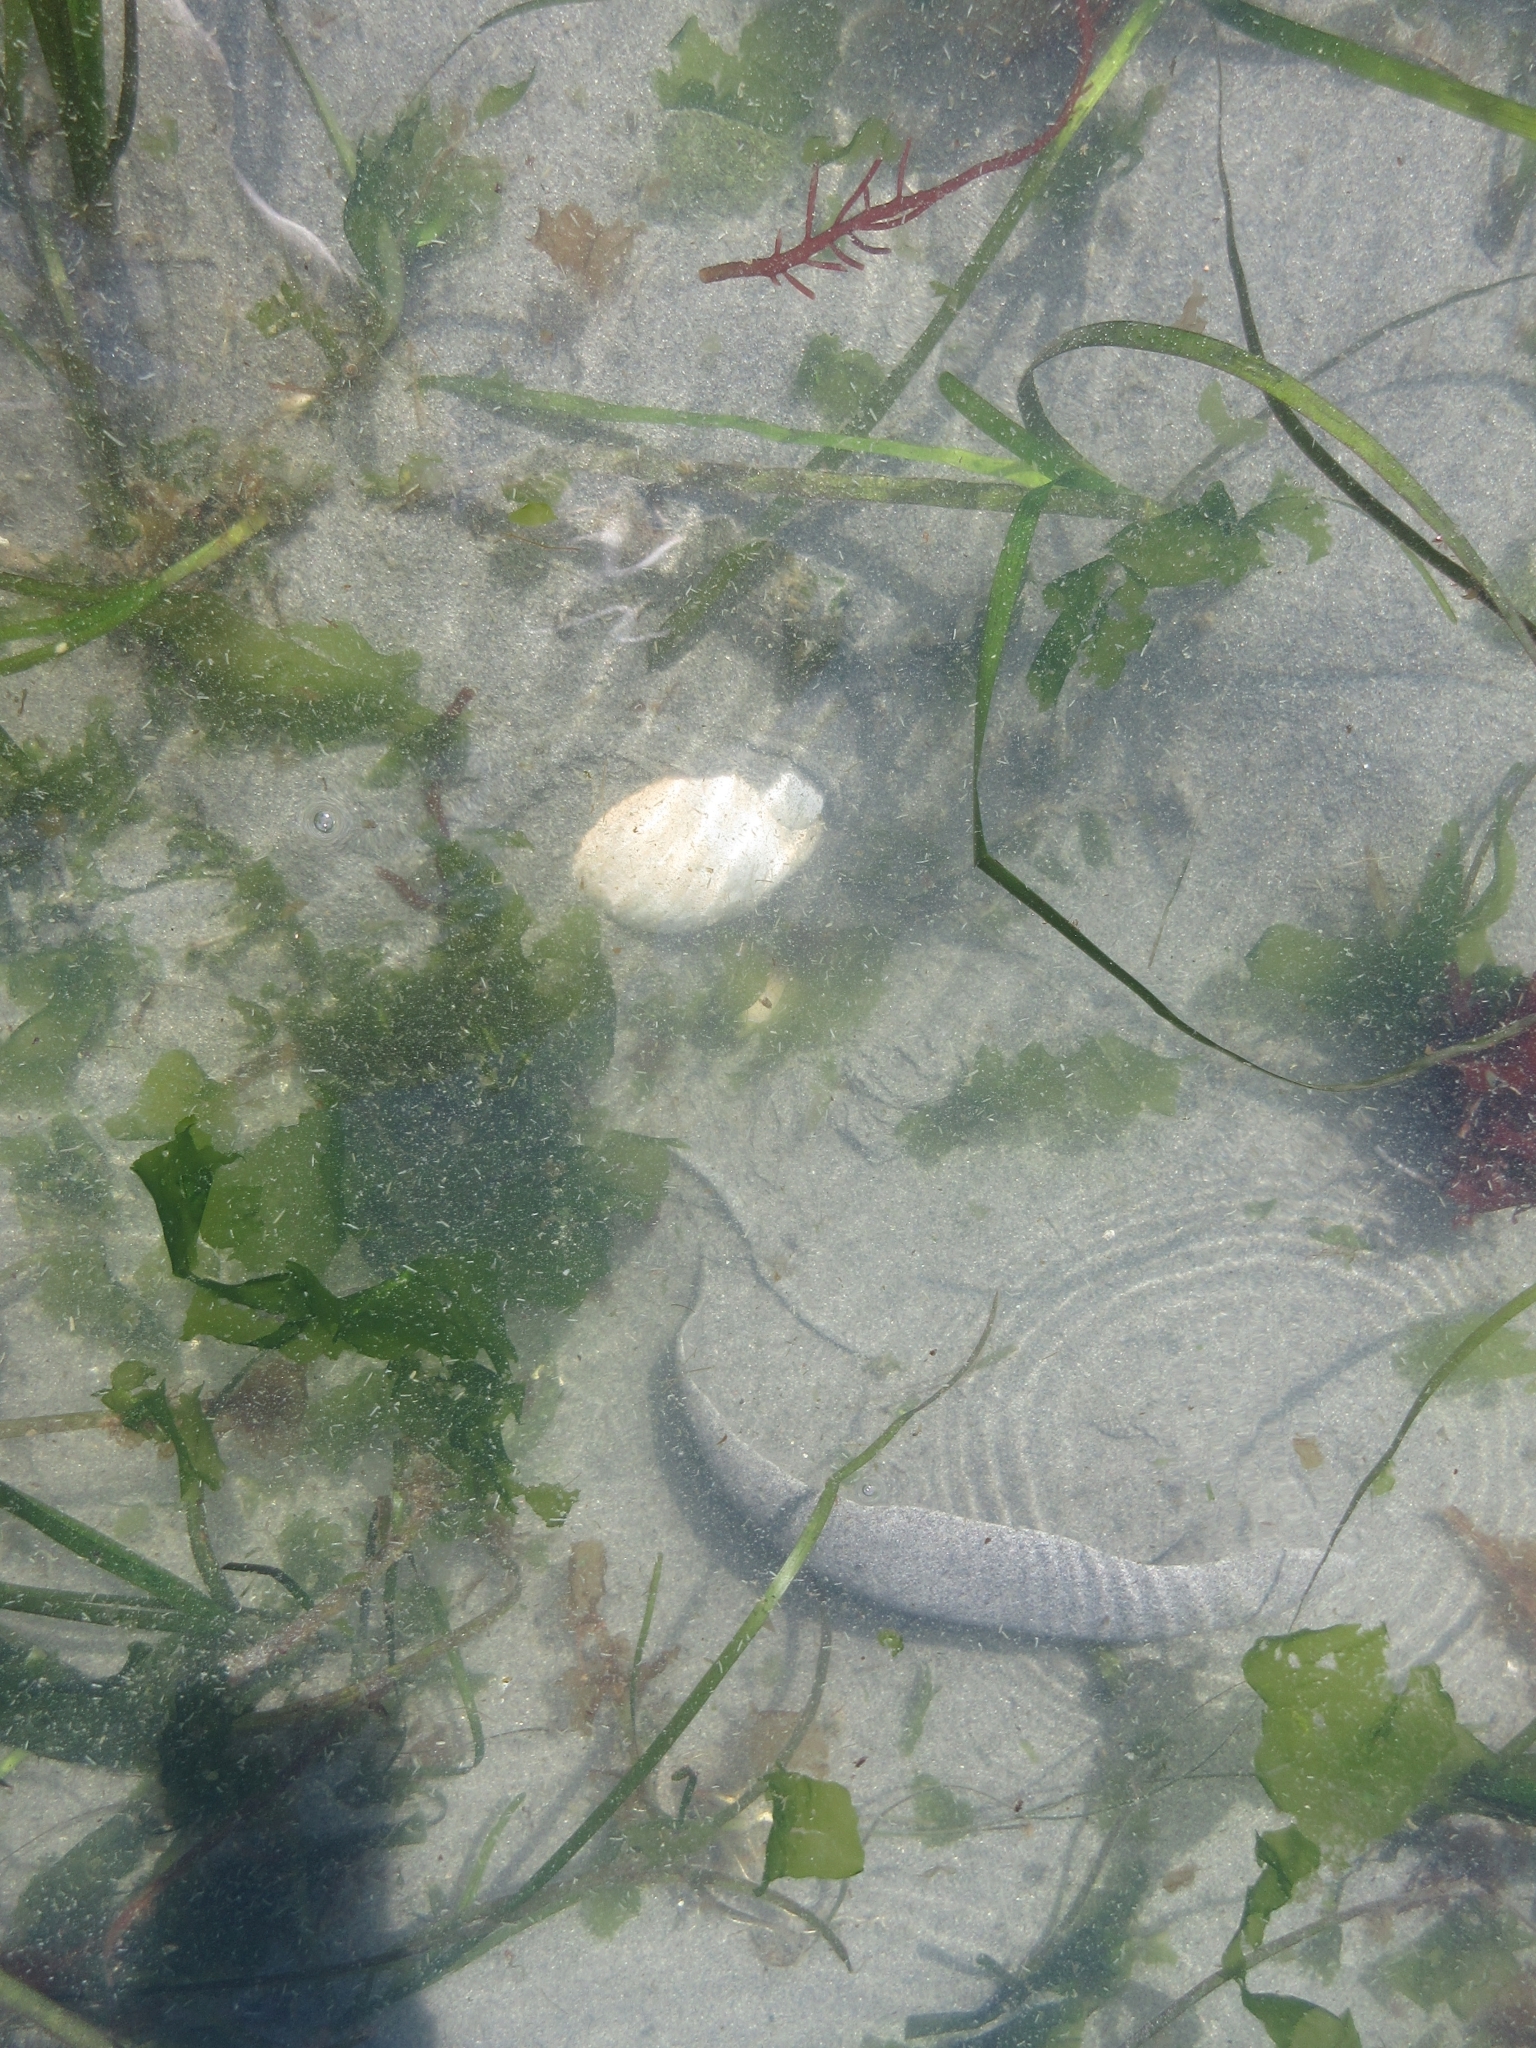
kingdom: Animalia
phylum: Mollusca
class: Gastropoda
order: Littorinimorpha
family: Naticidae
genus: Neverita
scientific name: Neverita lewisii
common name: Lewis' moonsnail
